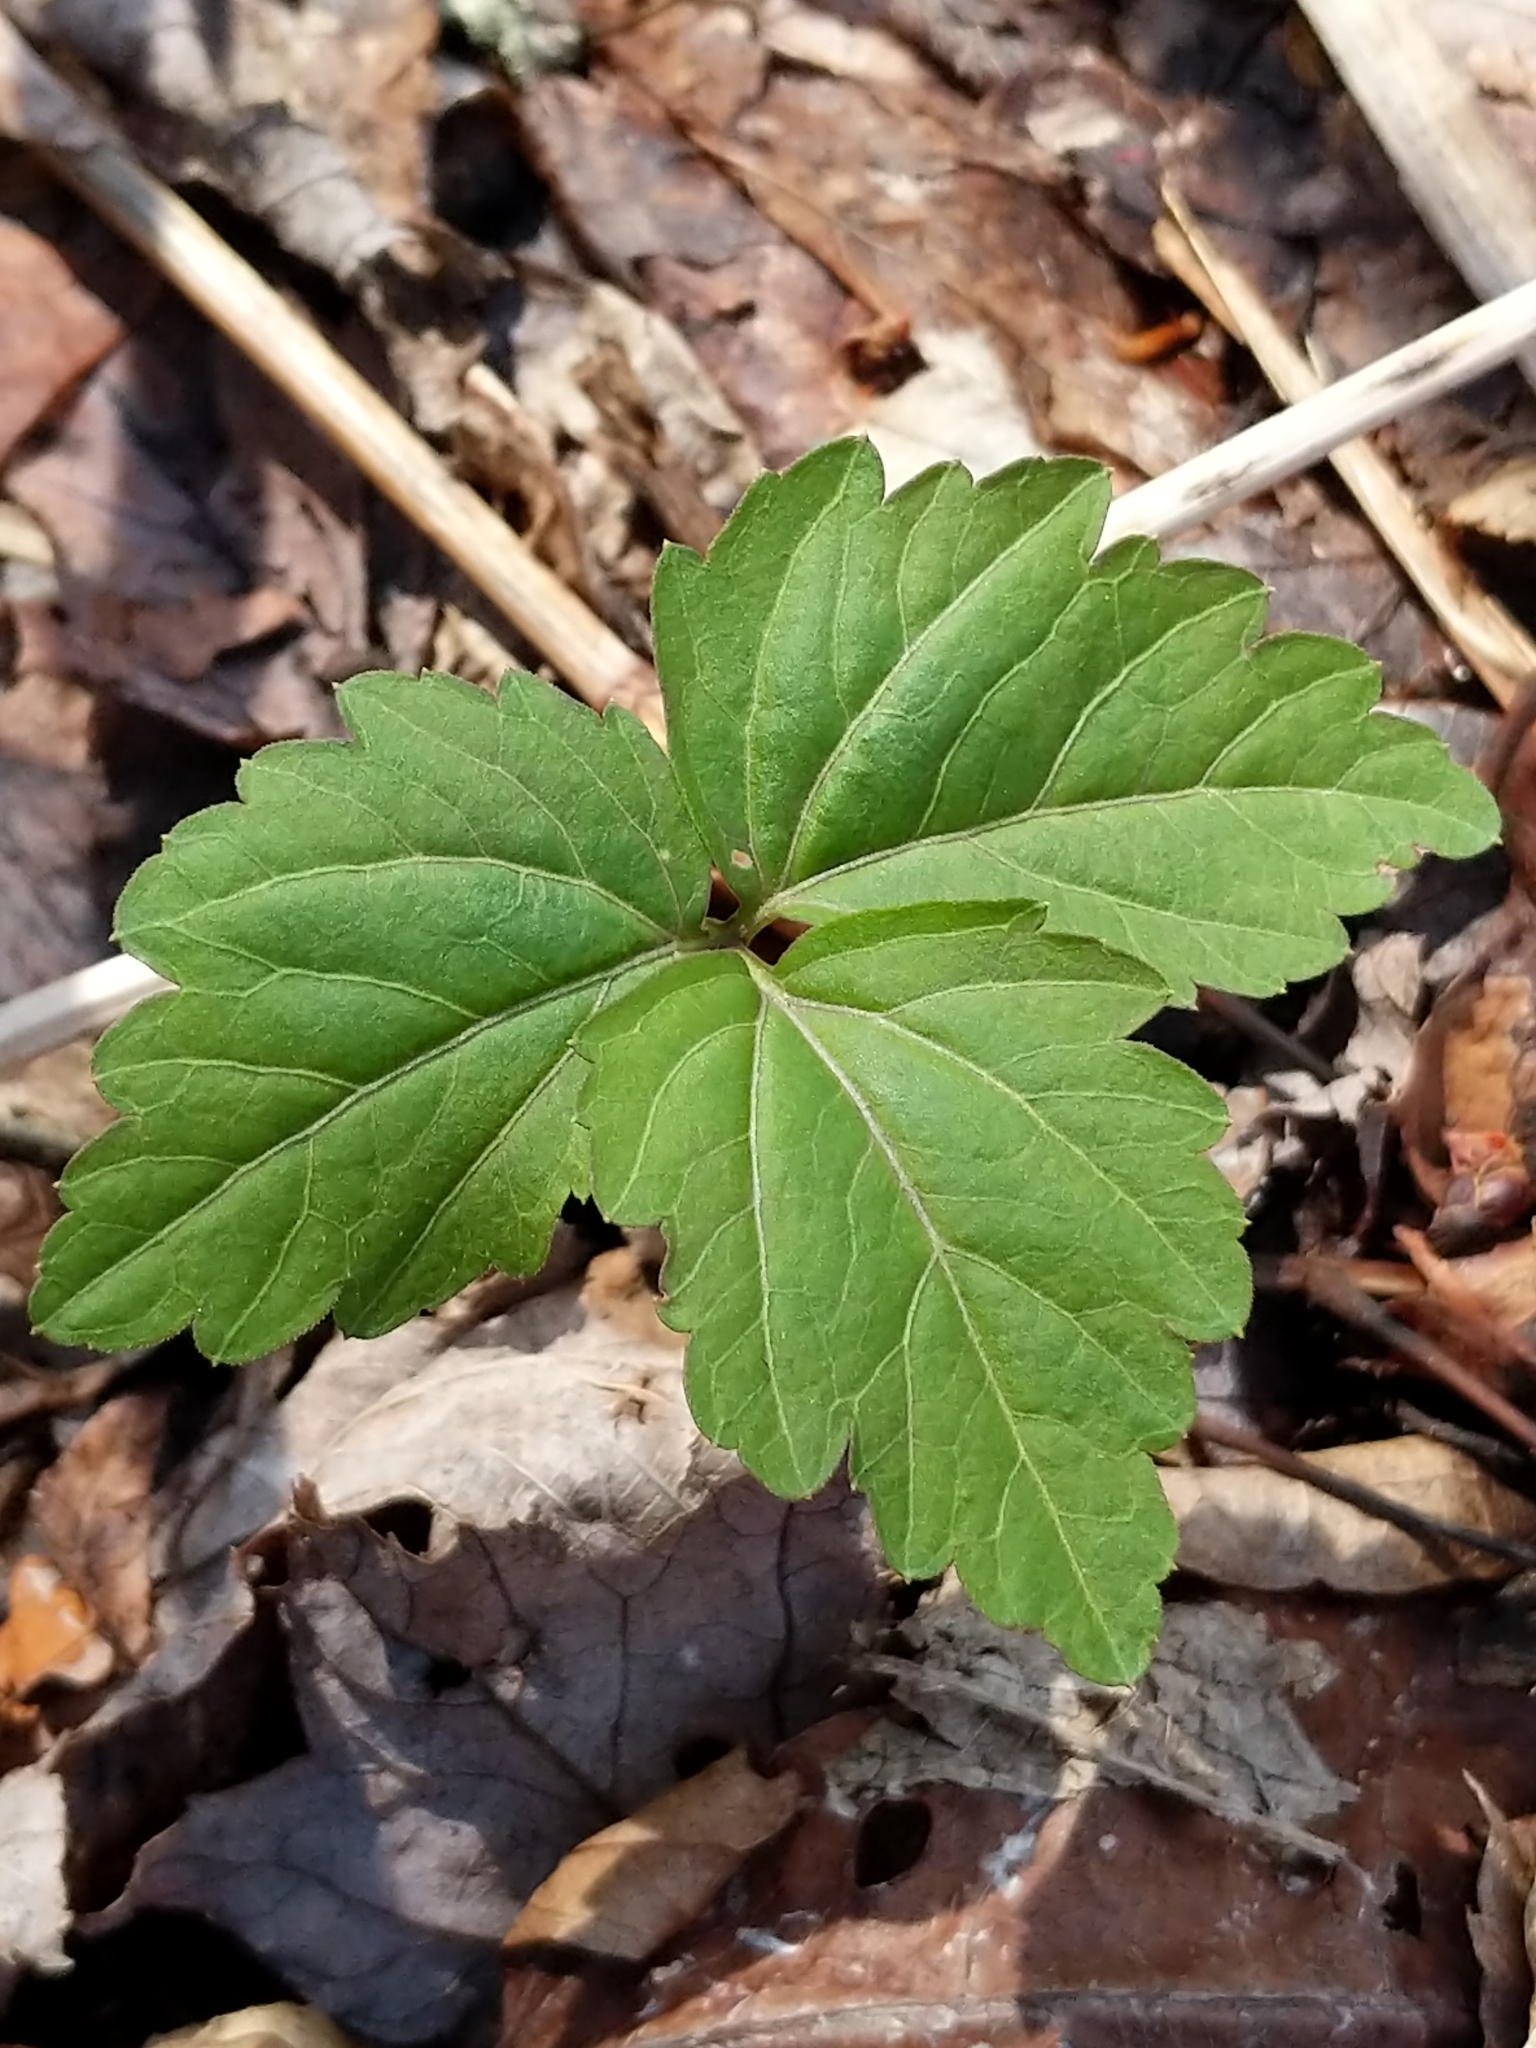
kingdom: Plantae
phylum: Tracheophyta
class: Magnoliopsida
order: Brassicales
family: Brassicaceae
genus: Cardamine
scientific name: Cardamine diphylla
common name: Broad-leaved toothwort
